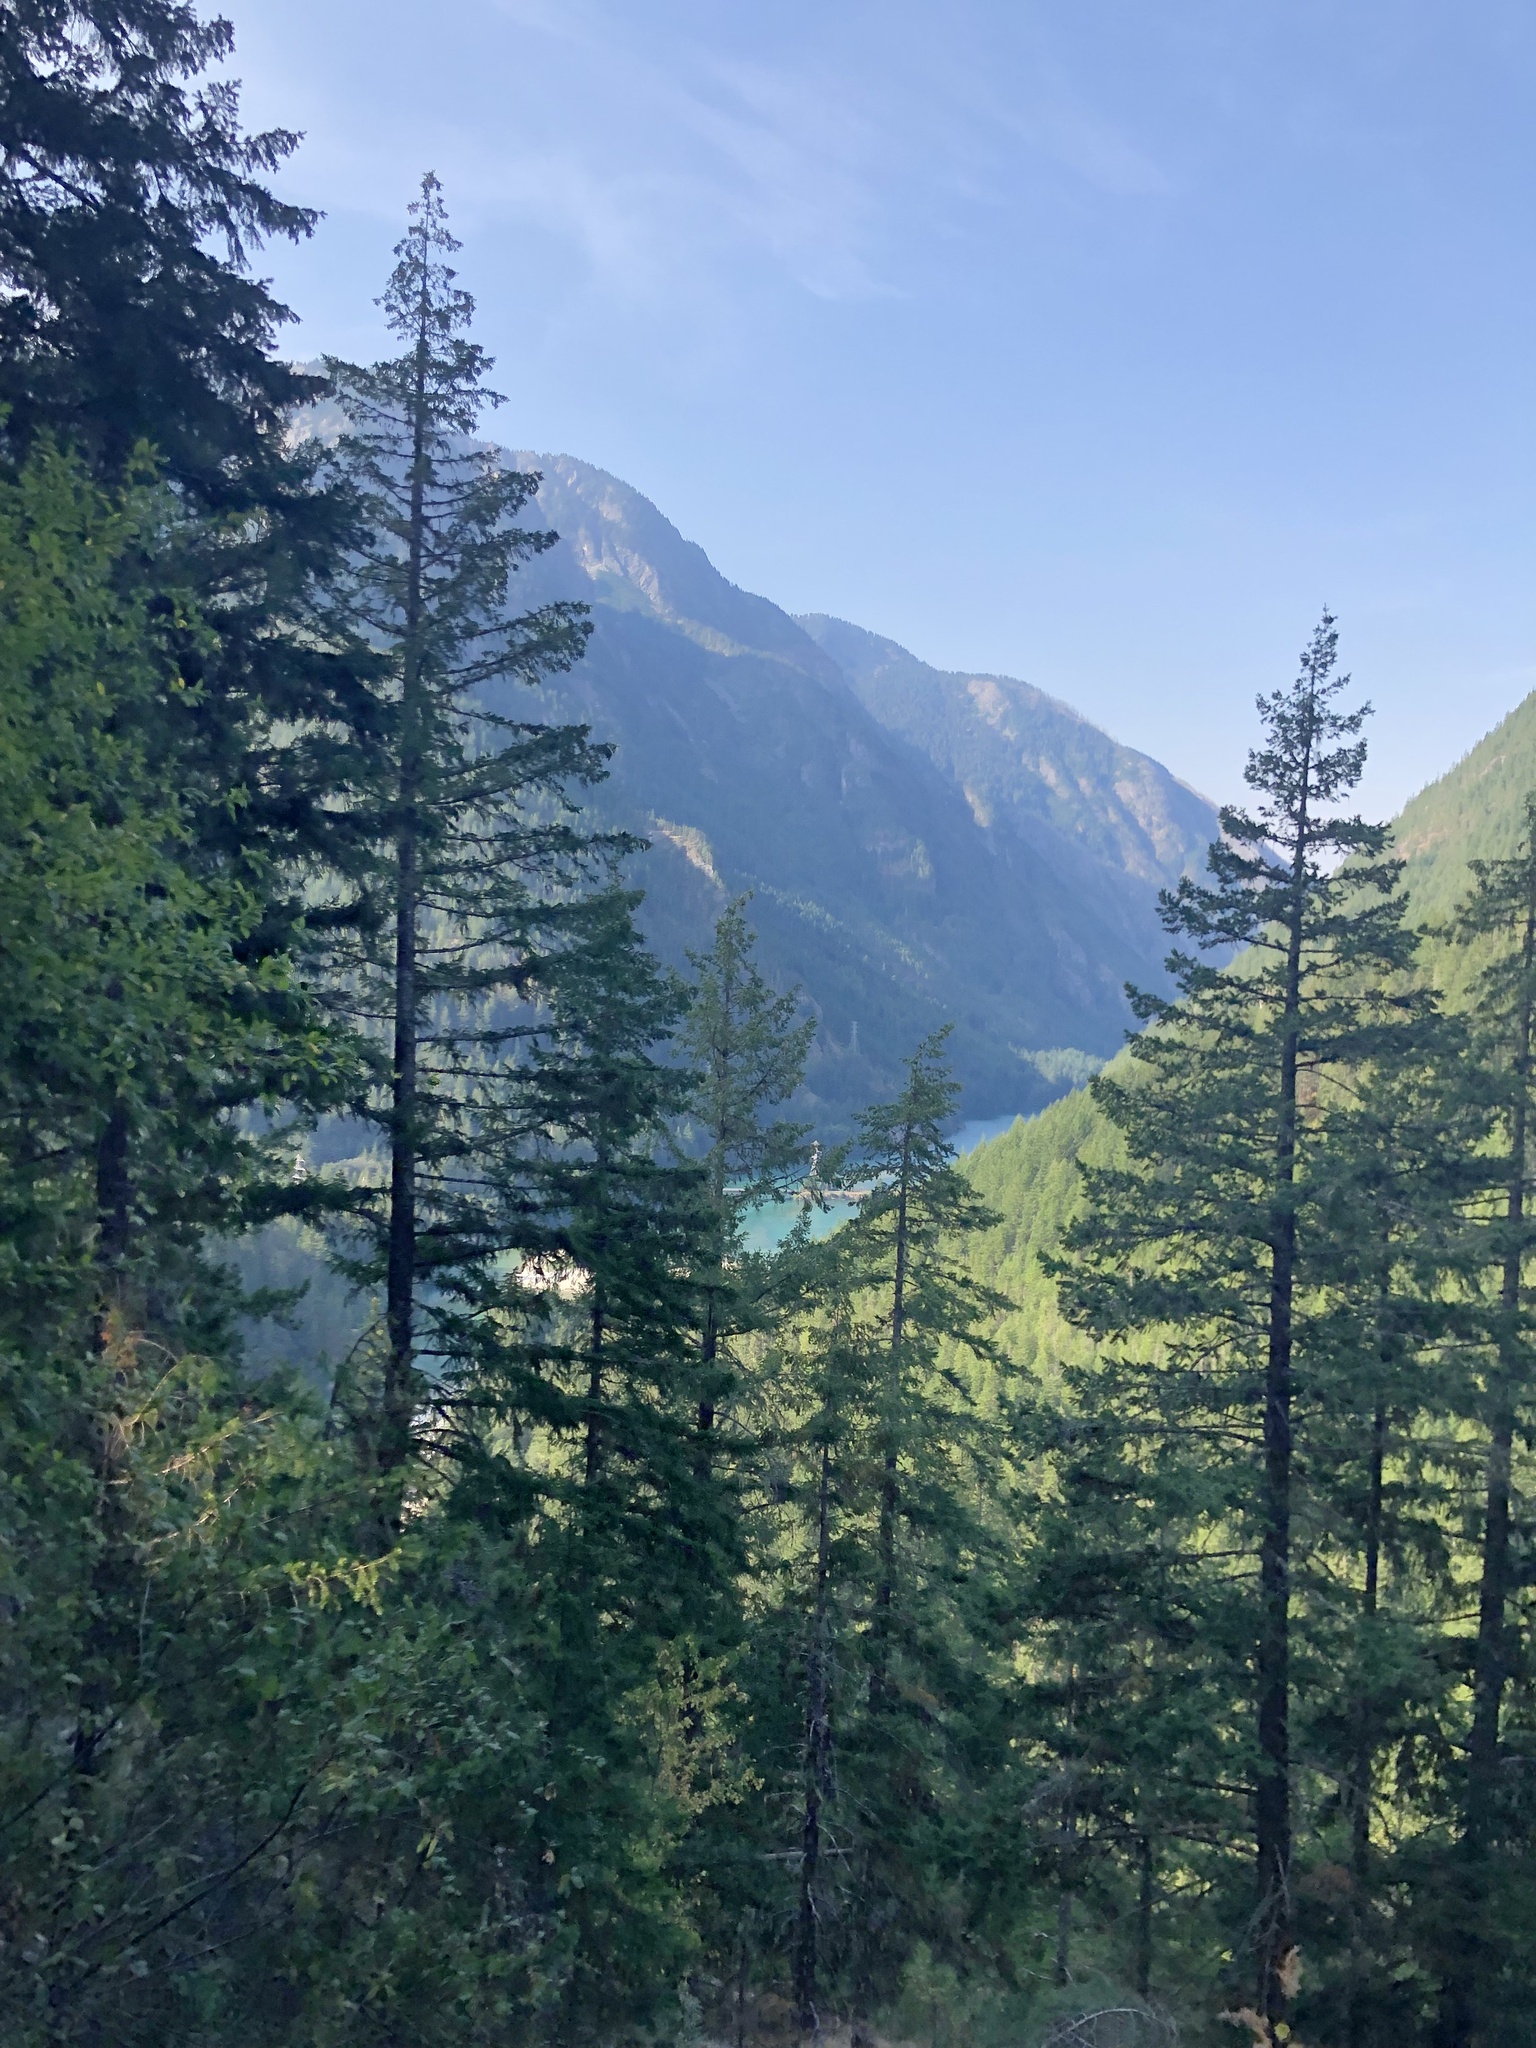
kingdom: Plantae
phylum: Tracheophyta
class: Pinopsida
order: Pinales
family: Pinaceae
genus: Pseudotsuga
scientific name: Pseudotsuga menziesii
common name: Douglas fir
